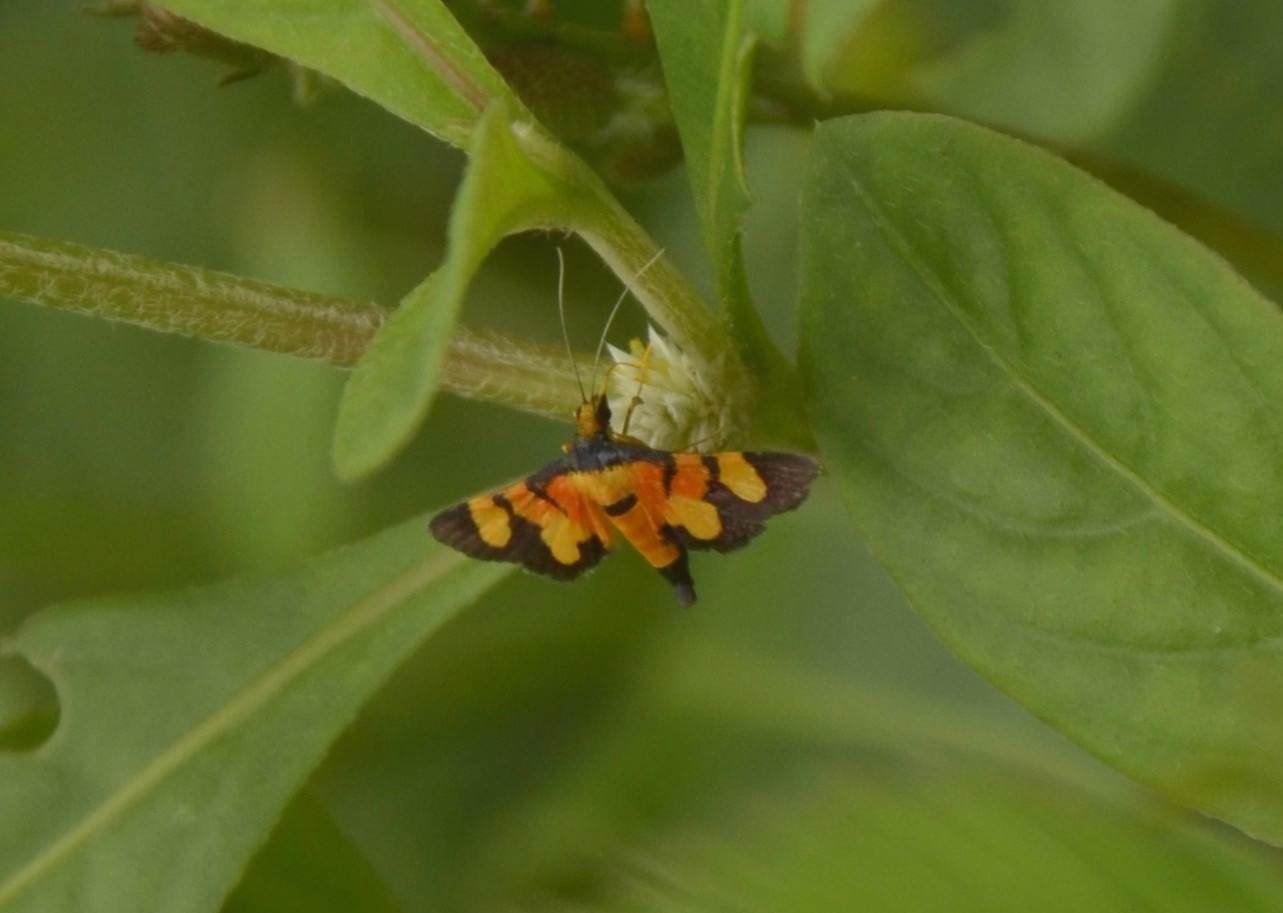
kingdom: Animalia
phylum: Arthropoda
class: Insecta
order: Lepidoptera
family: Crambidae
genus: Aethaloessa
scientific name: Aethaloessa calidalis
